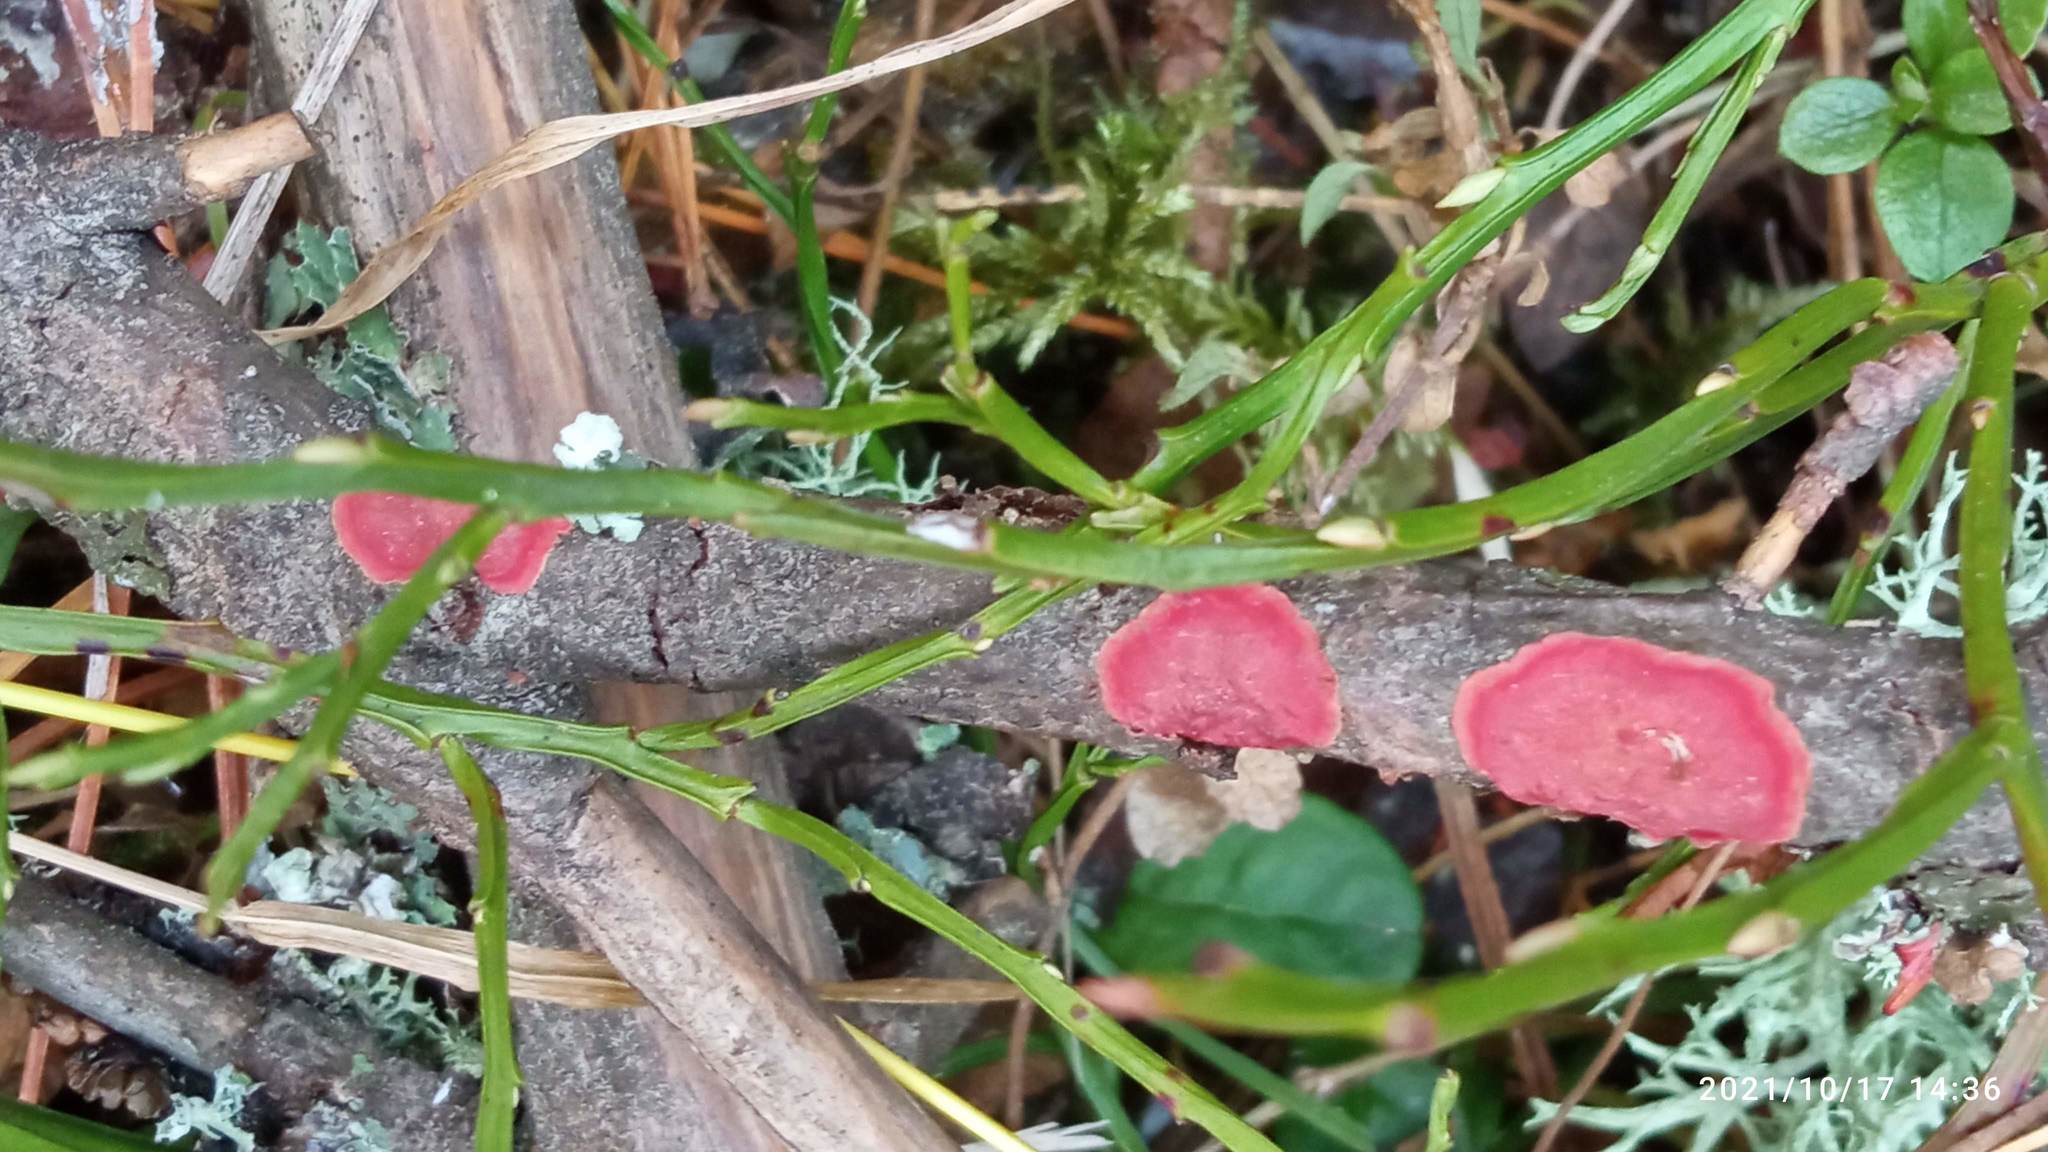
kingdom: Fungi
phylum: Basidiomycota
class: Agaricomycetes
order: Hymenochaetales
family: Hymenochaetaceae
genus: Hymenochaete
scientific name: Hymenochaete cruenta
